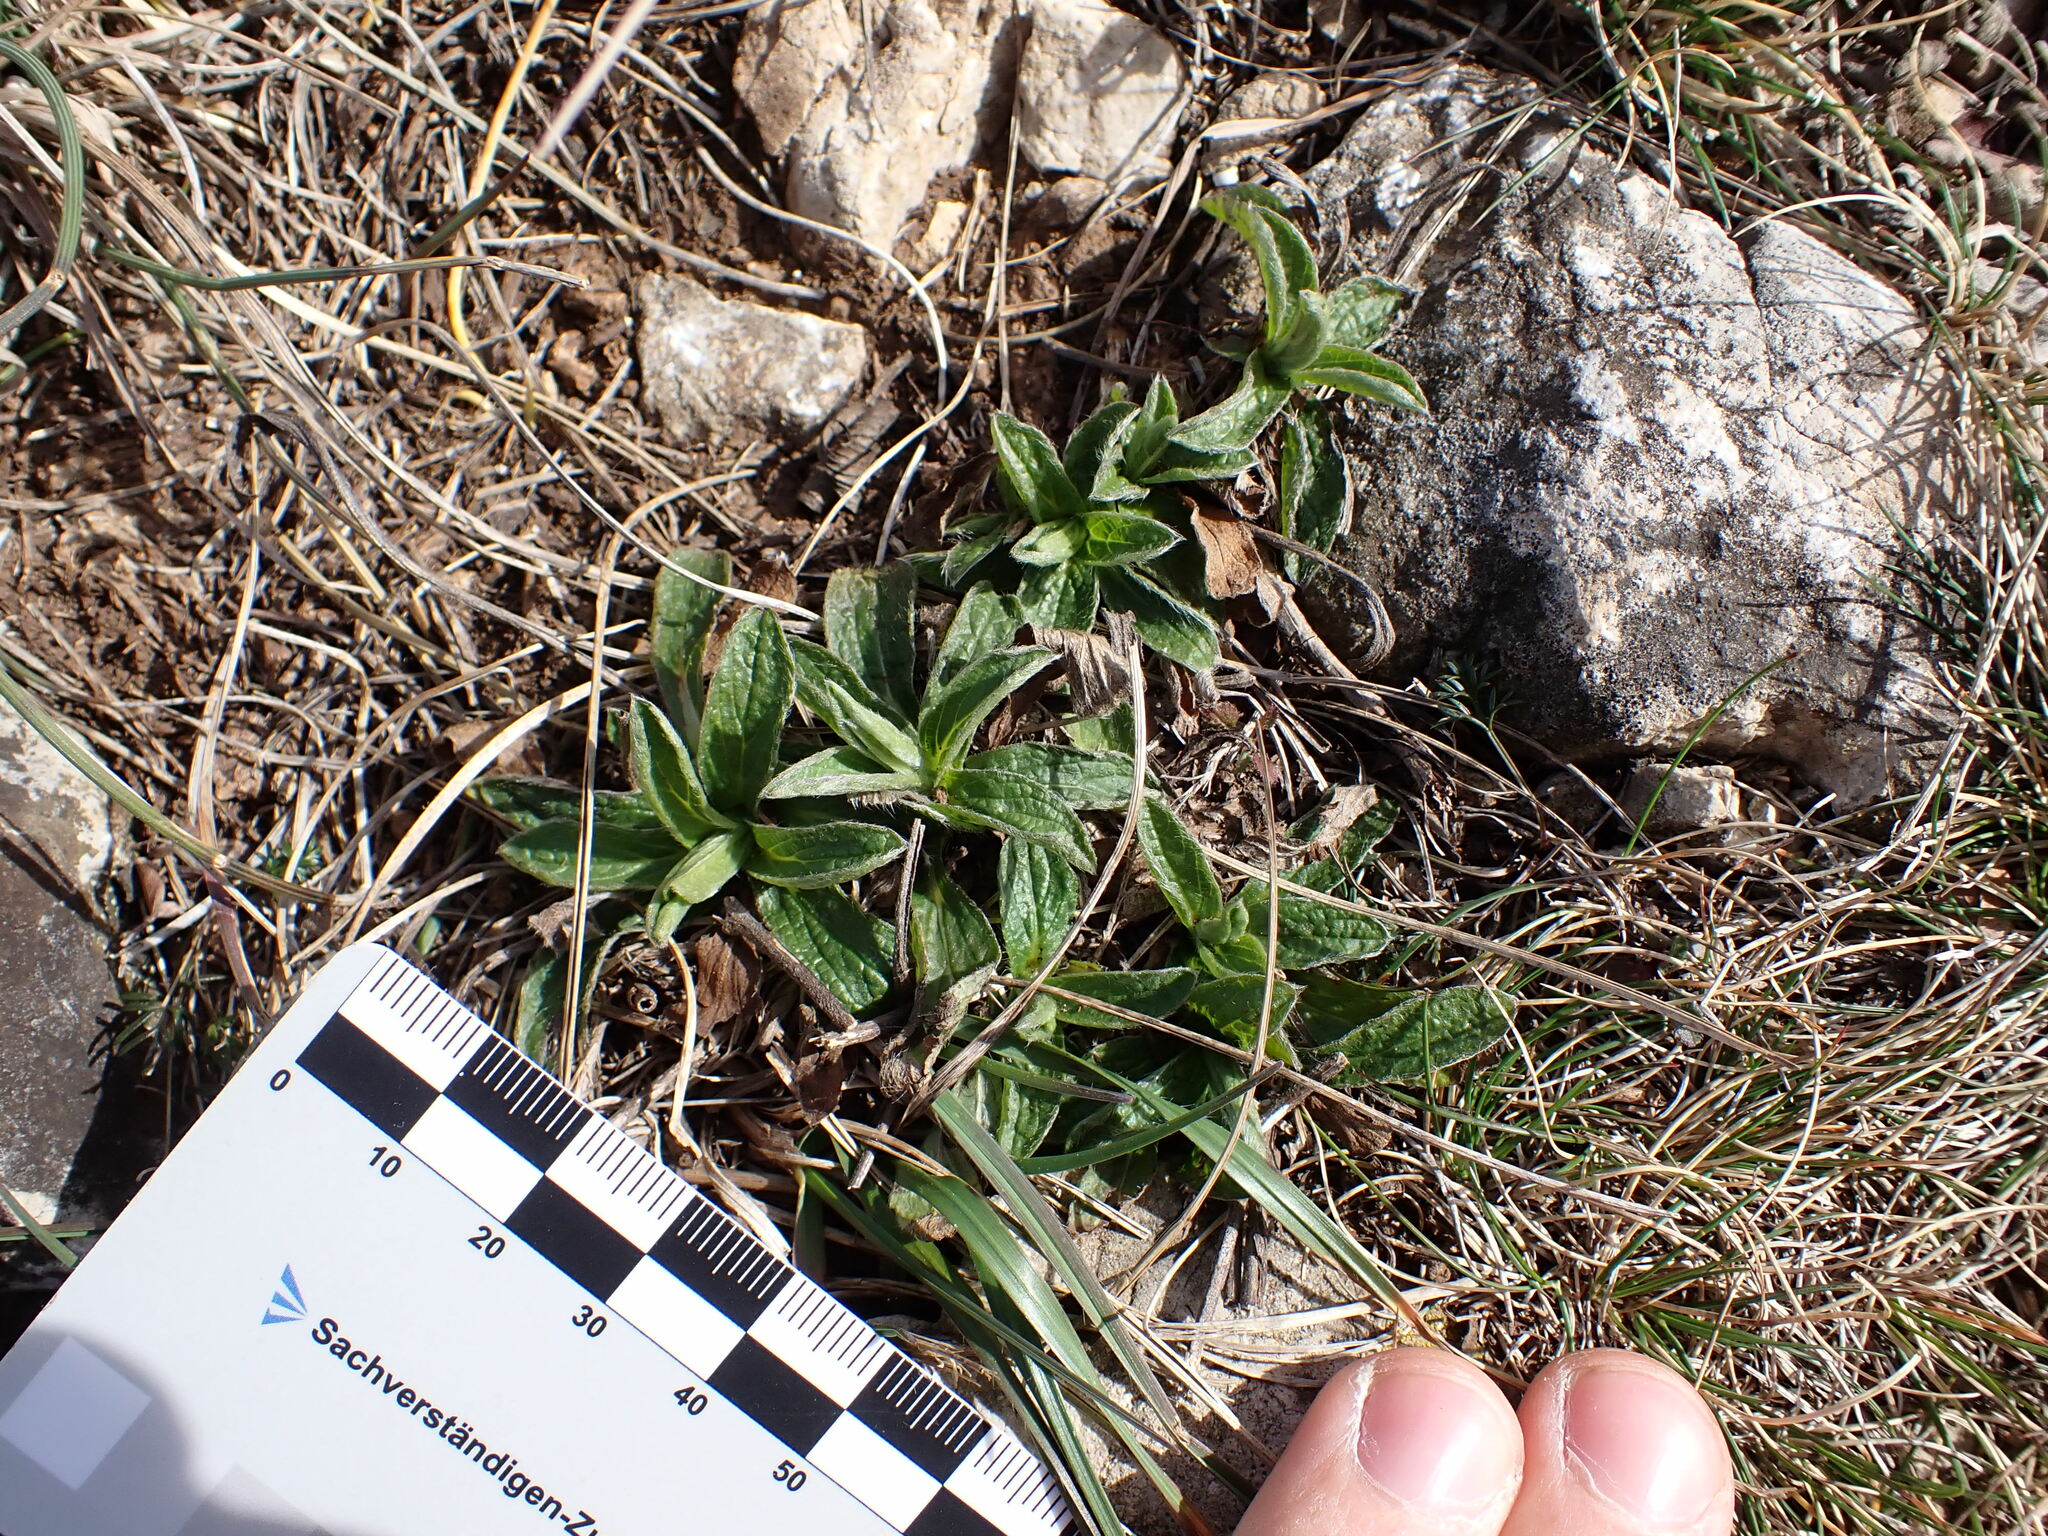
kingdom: Plantae
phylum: Tracheophyta
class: Magnoliopsida
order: Asterales
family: Asteraceae
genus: Pentanema
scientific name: Pentanema montanum
